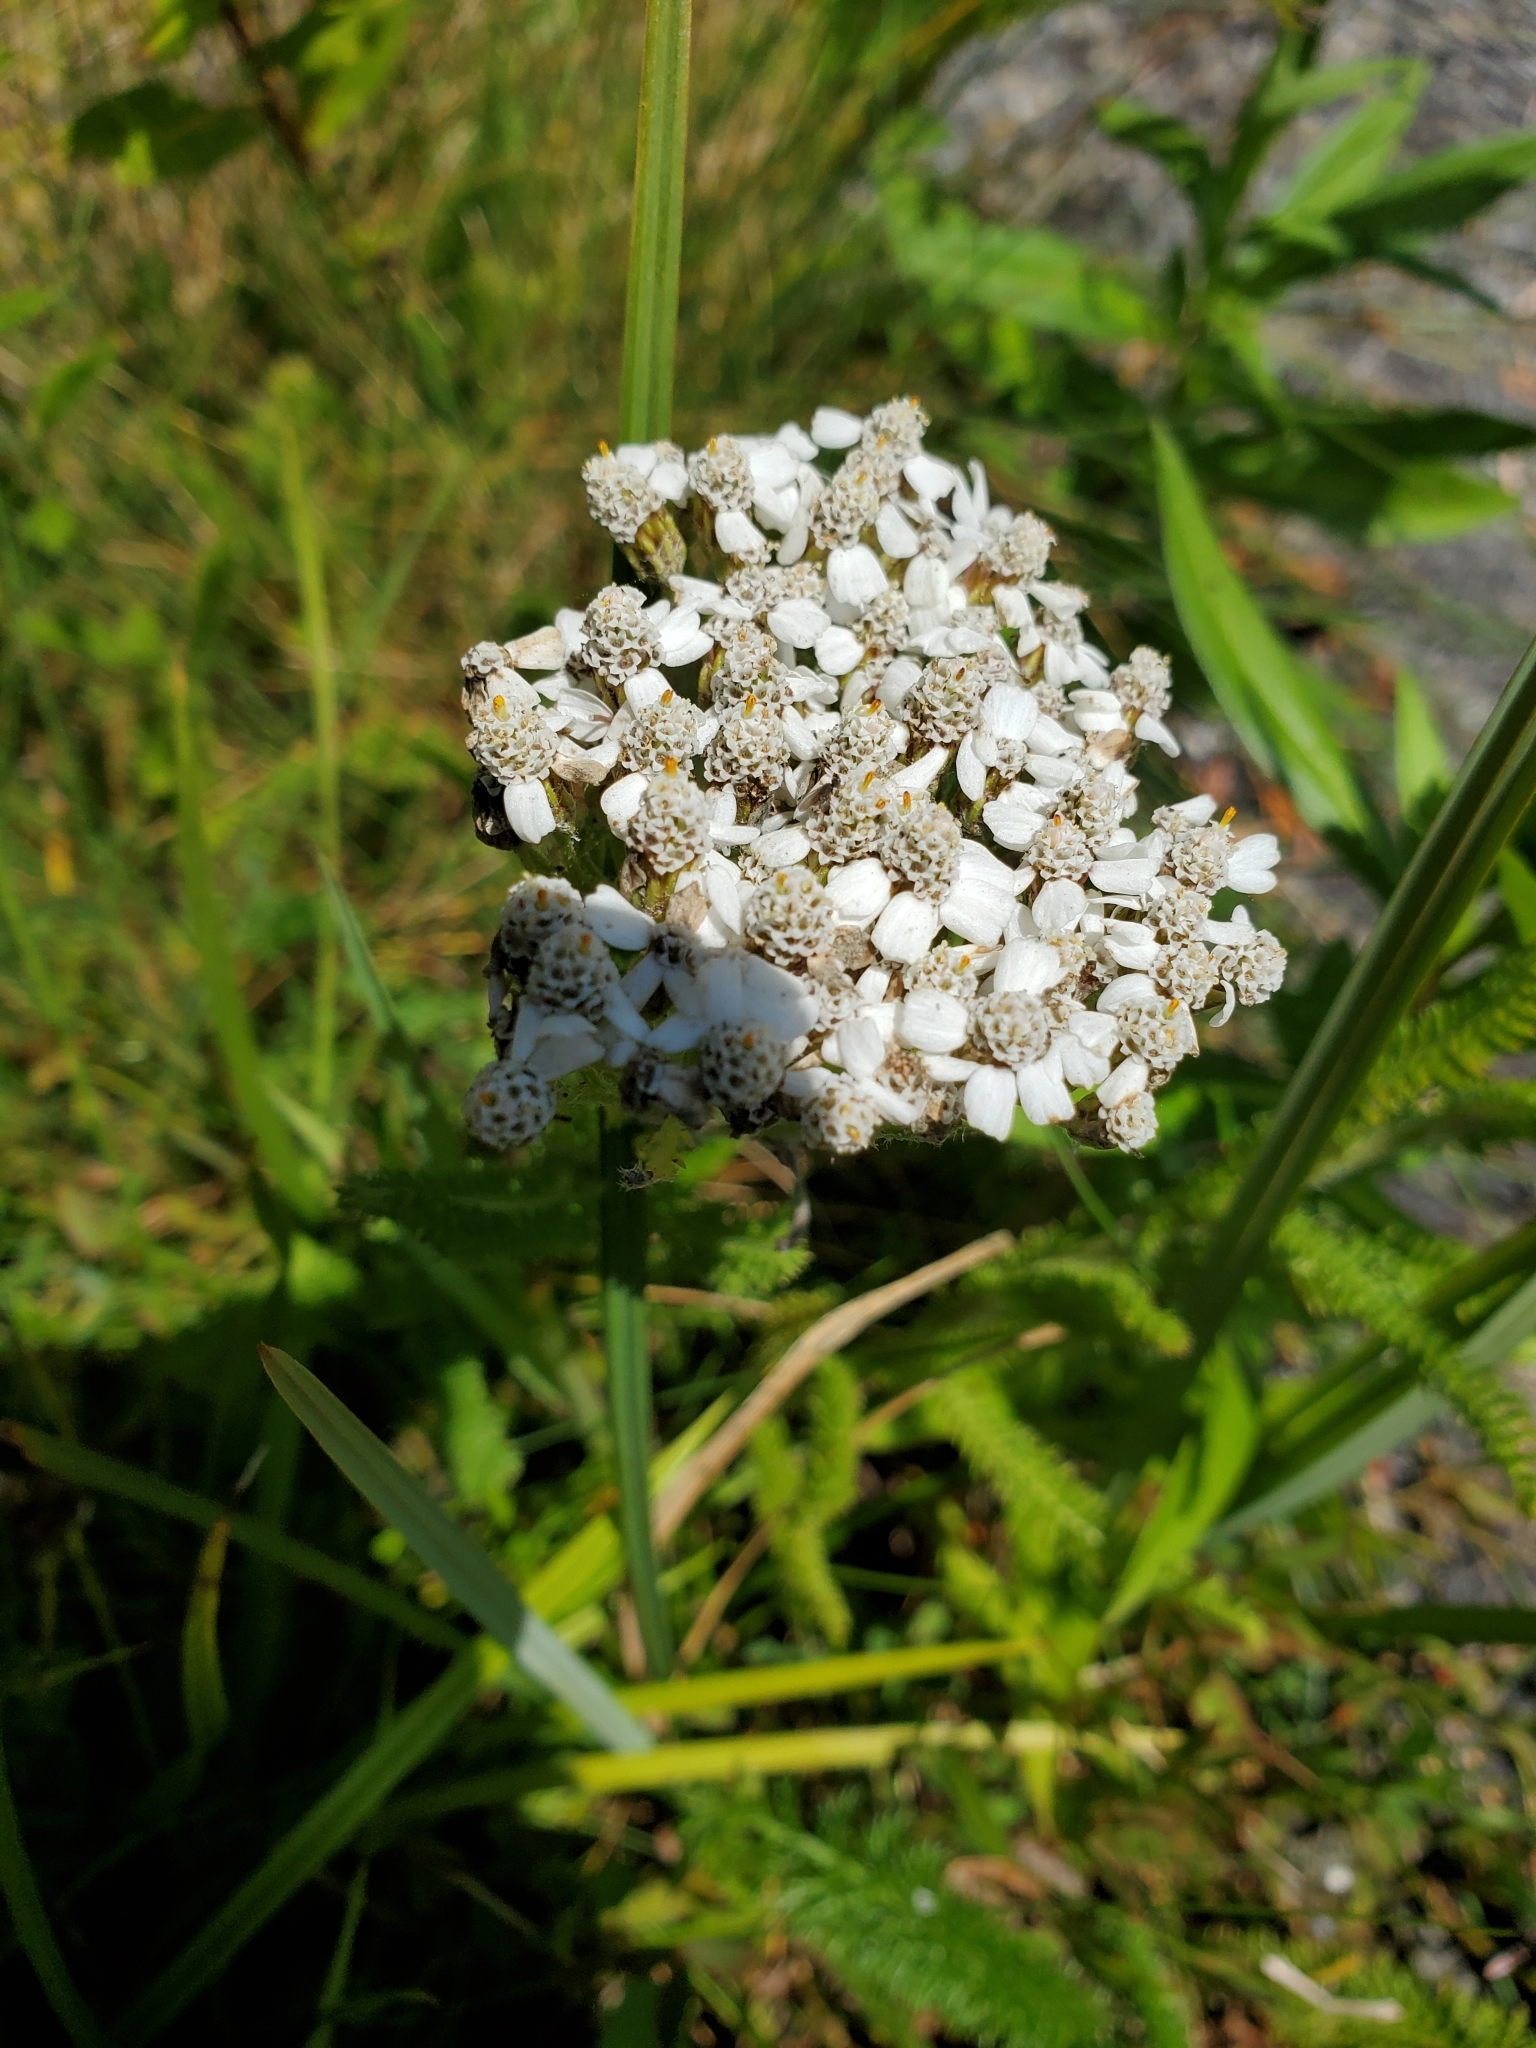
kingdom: Plantae
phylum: Tracheophyta
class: Magnoliopsida
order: Asterales
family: Asteraceae
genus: Achillea
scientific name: Achillea millefolium
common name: Yarrow
